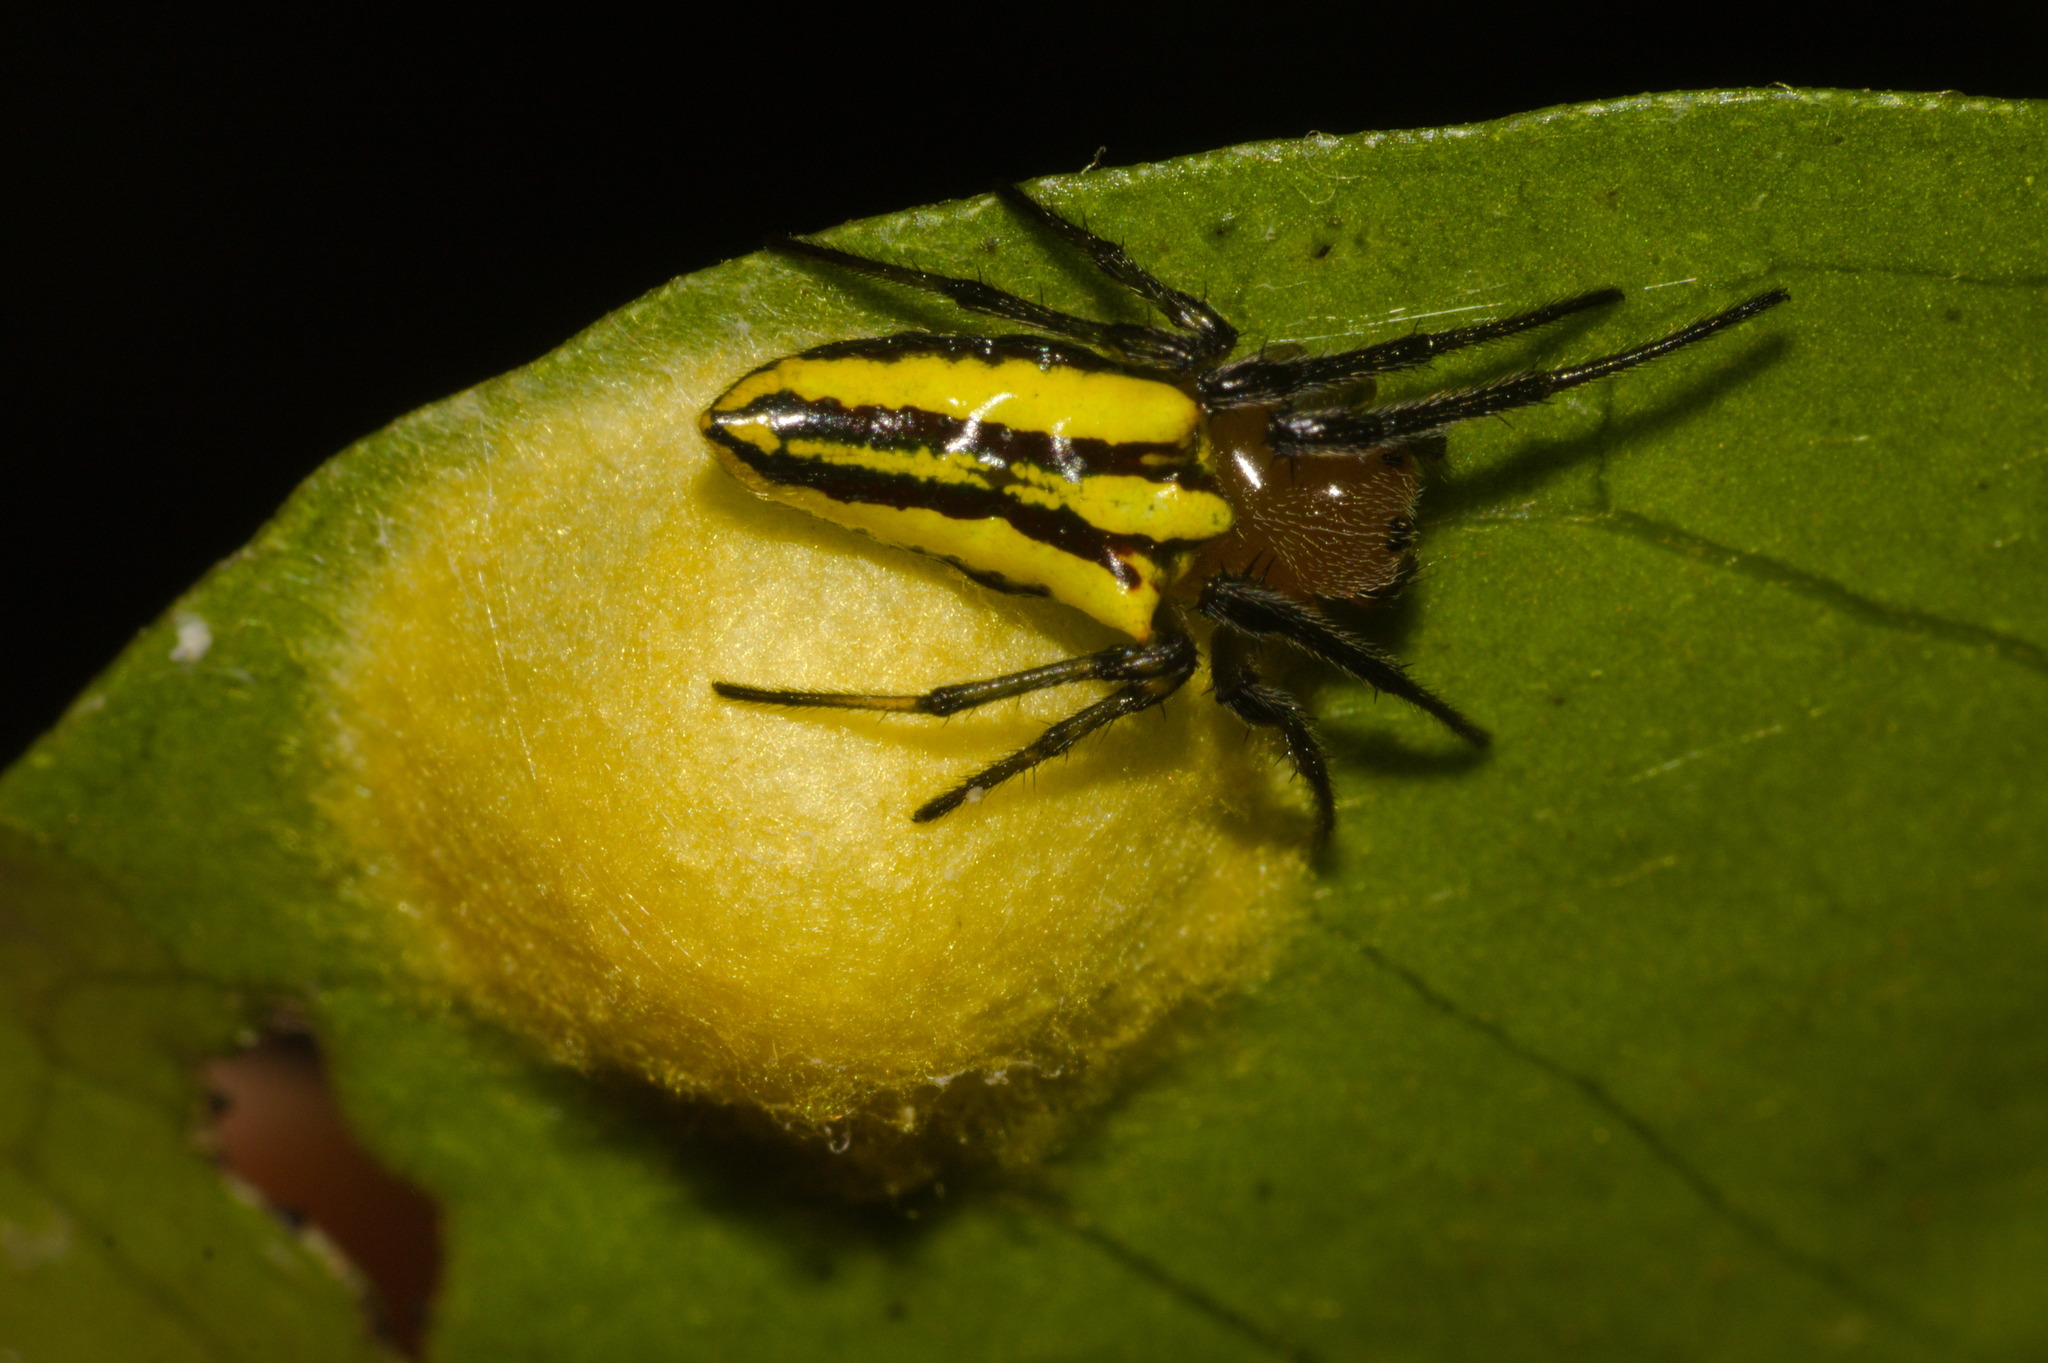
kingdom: Animalia
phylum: Arthropoda
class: Arachnida
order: Araneae
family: Araneidae
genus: Alpaida
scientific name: Alpaida bicornuta
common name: Orb weavers
